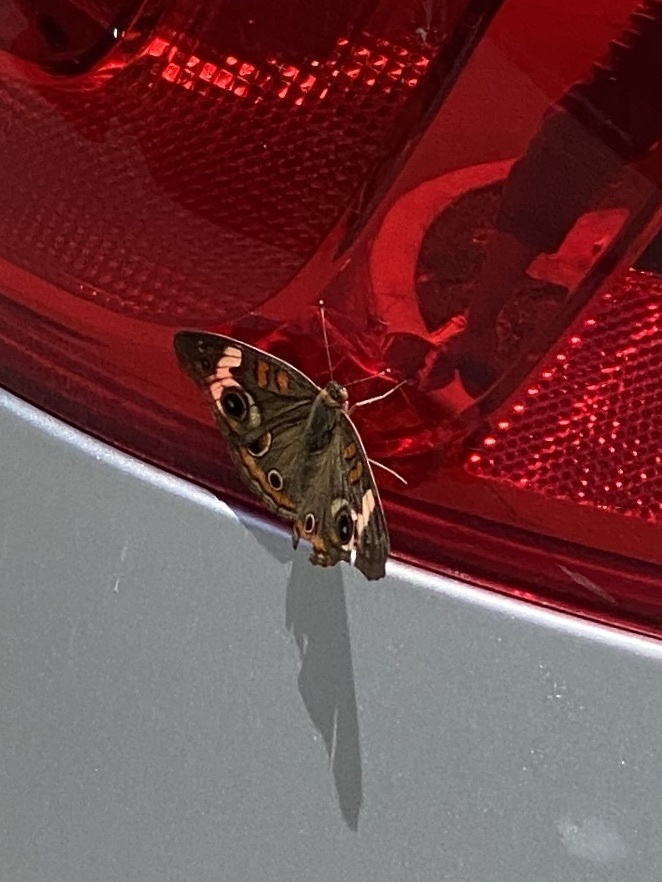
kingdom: Animalia
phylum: Arthropoda
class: Insecta
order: Lepidoptera
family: Nymphalidae
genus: Junonia
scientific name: Junonia coenia
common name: Common buckeye
